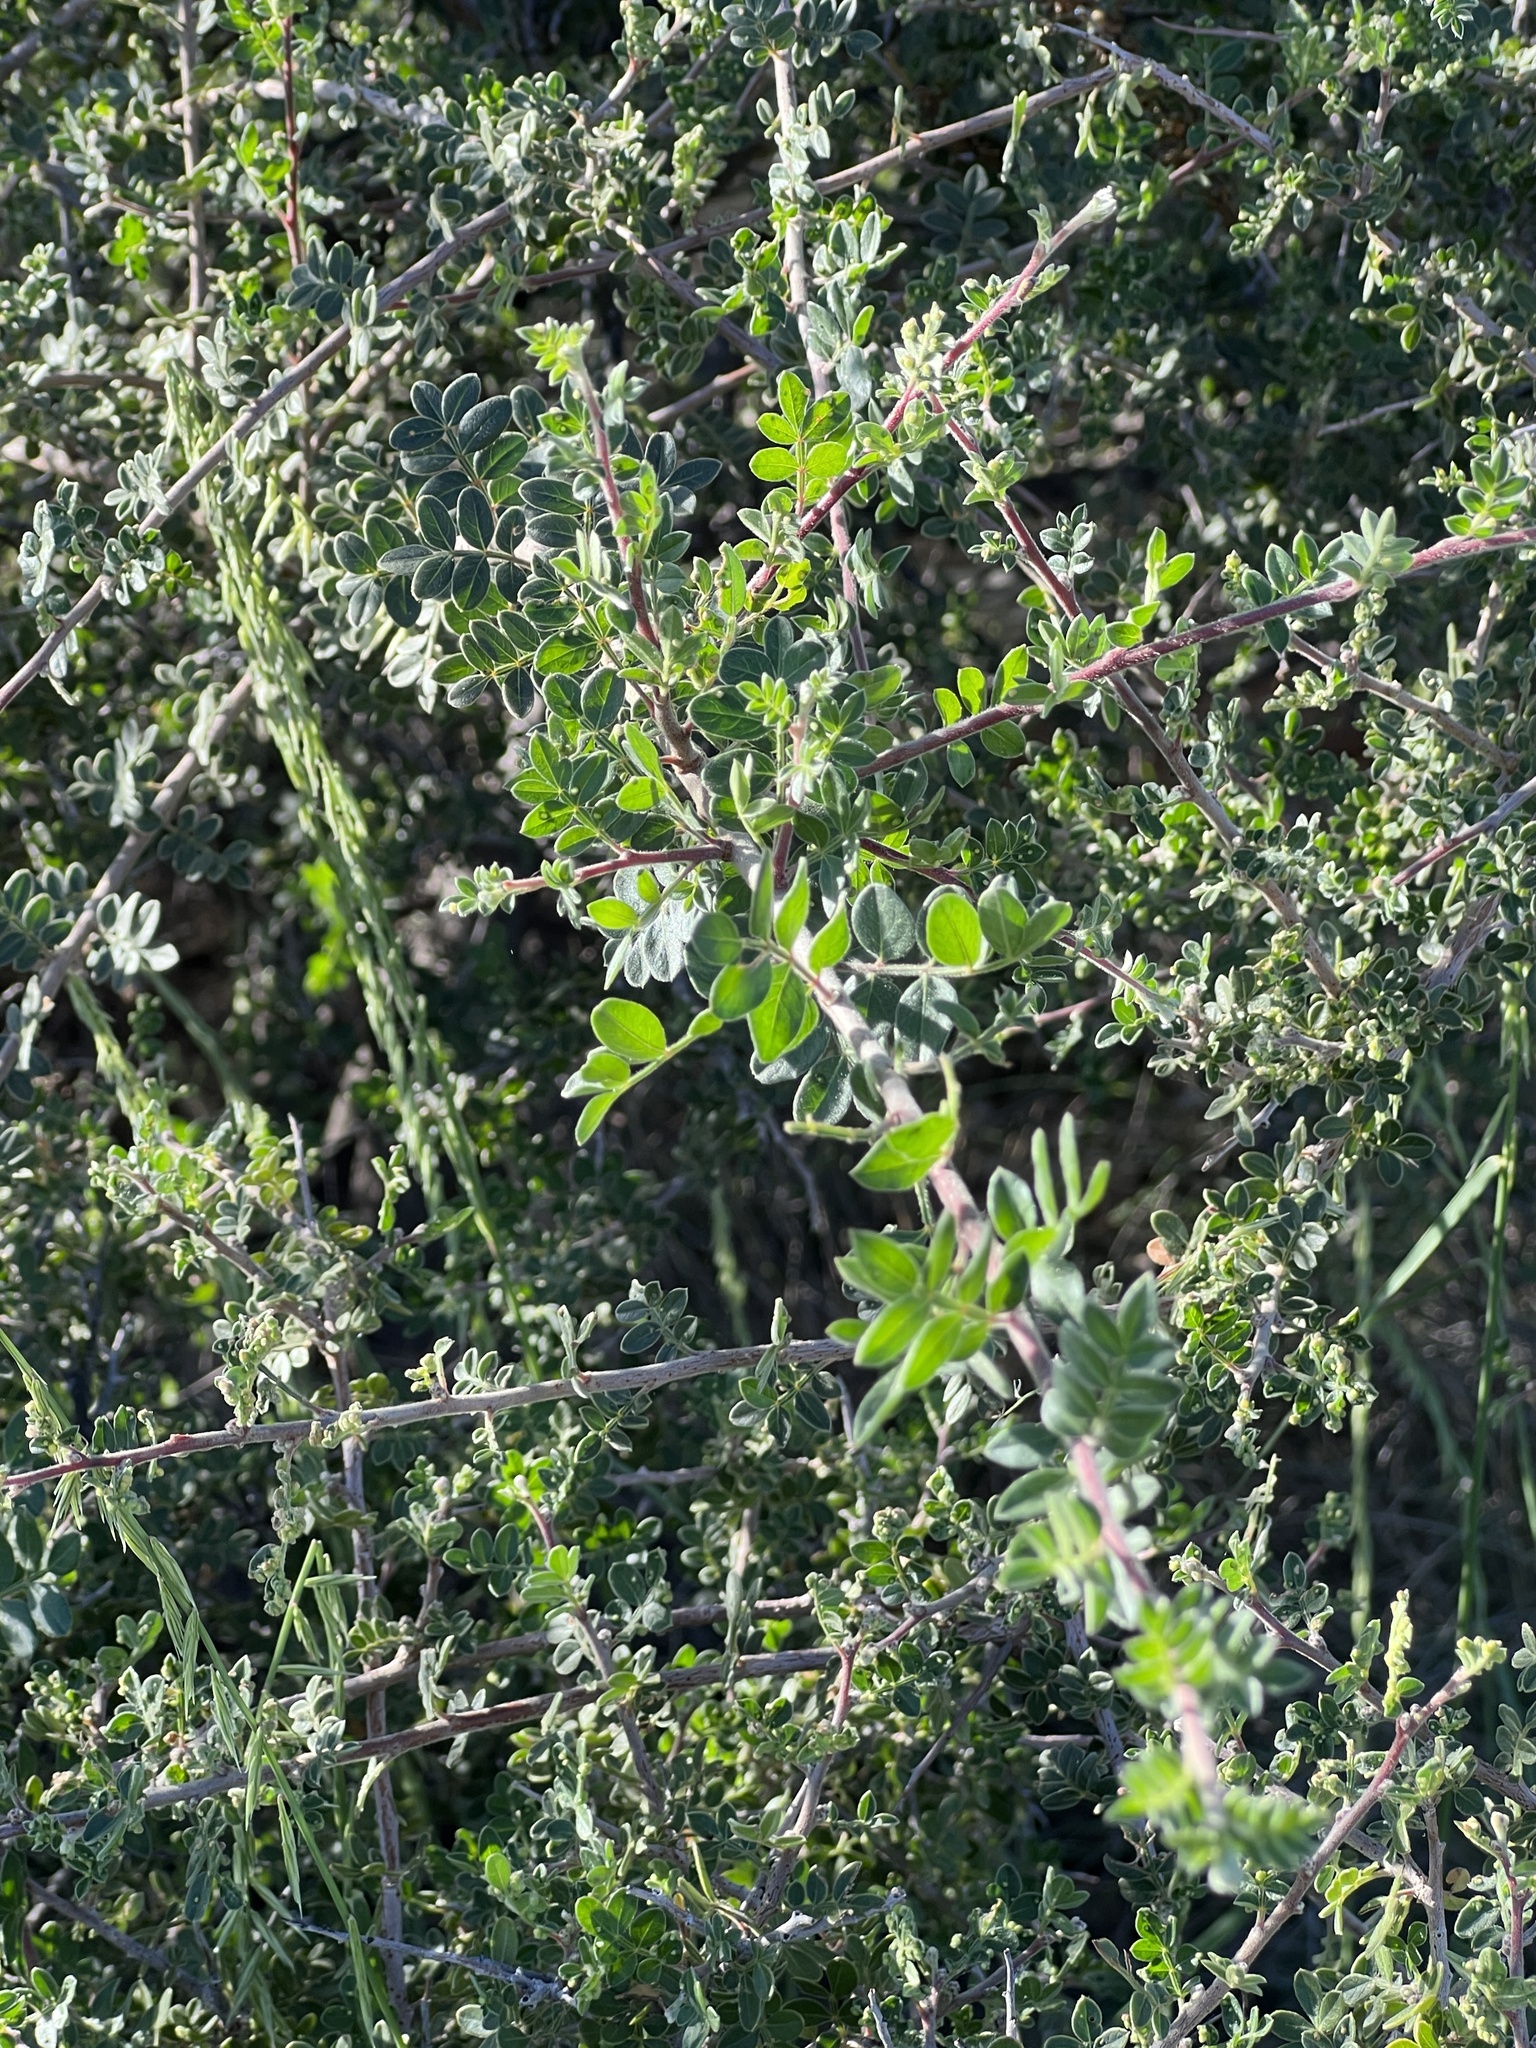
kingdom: Plantae
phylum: Tracheophyta
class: Magnoliopsida
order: Sapindales
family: Anacardiaceae
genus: Rhus
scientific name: Rhus microphylla
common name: Desert sumac
